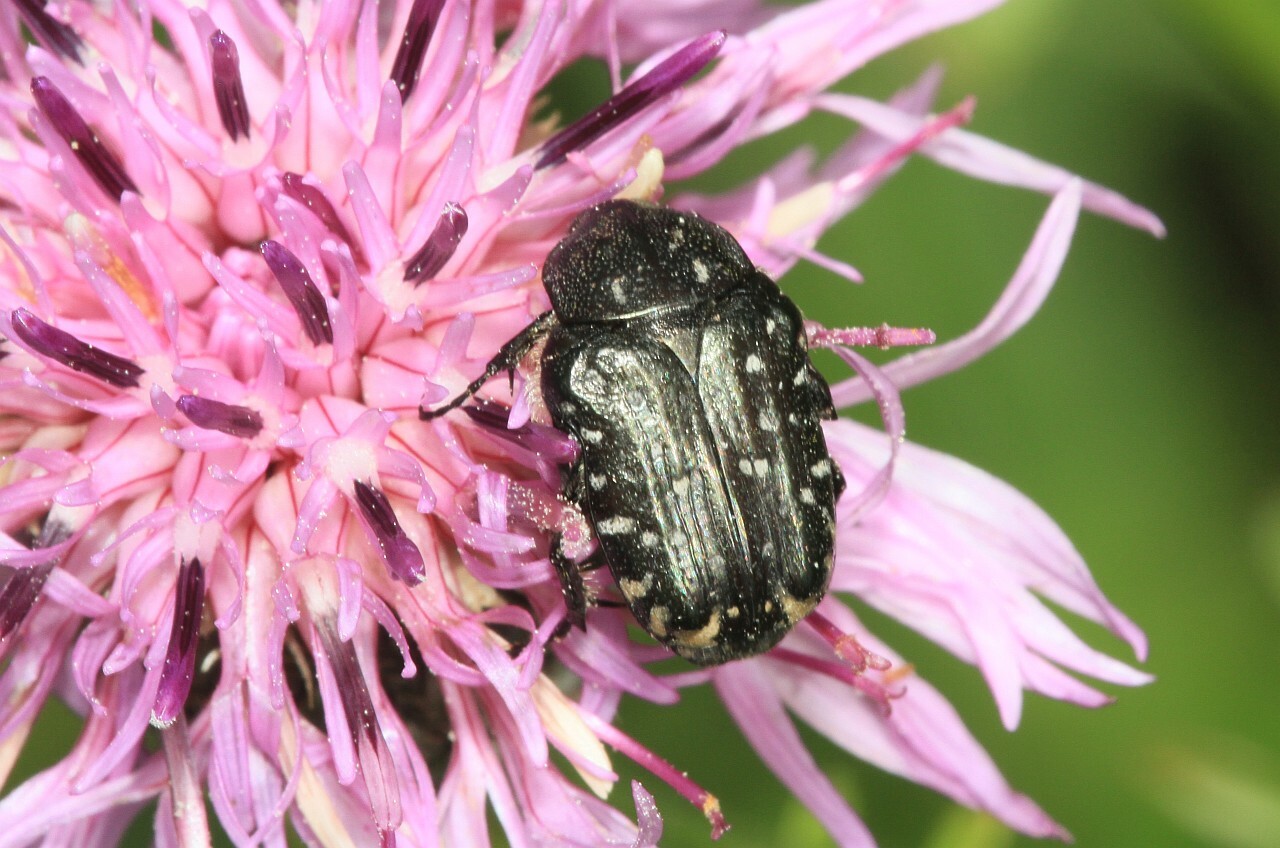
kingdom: Animalia
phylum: Arthropoda
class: Insecta
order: Coleoptera
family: Scarabaeidae
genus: Oxythyrea
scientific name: Oxythyrea funesta
